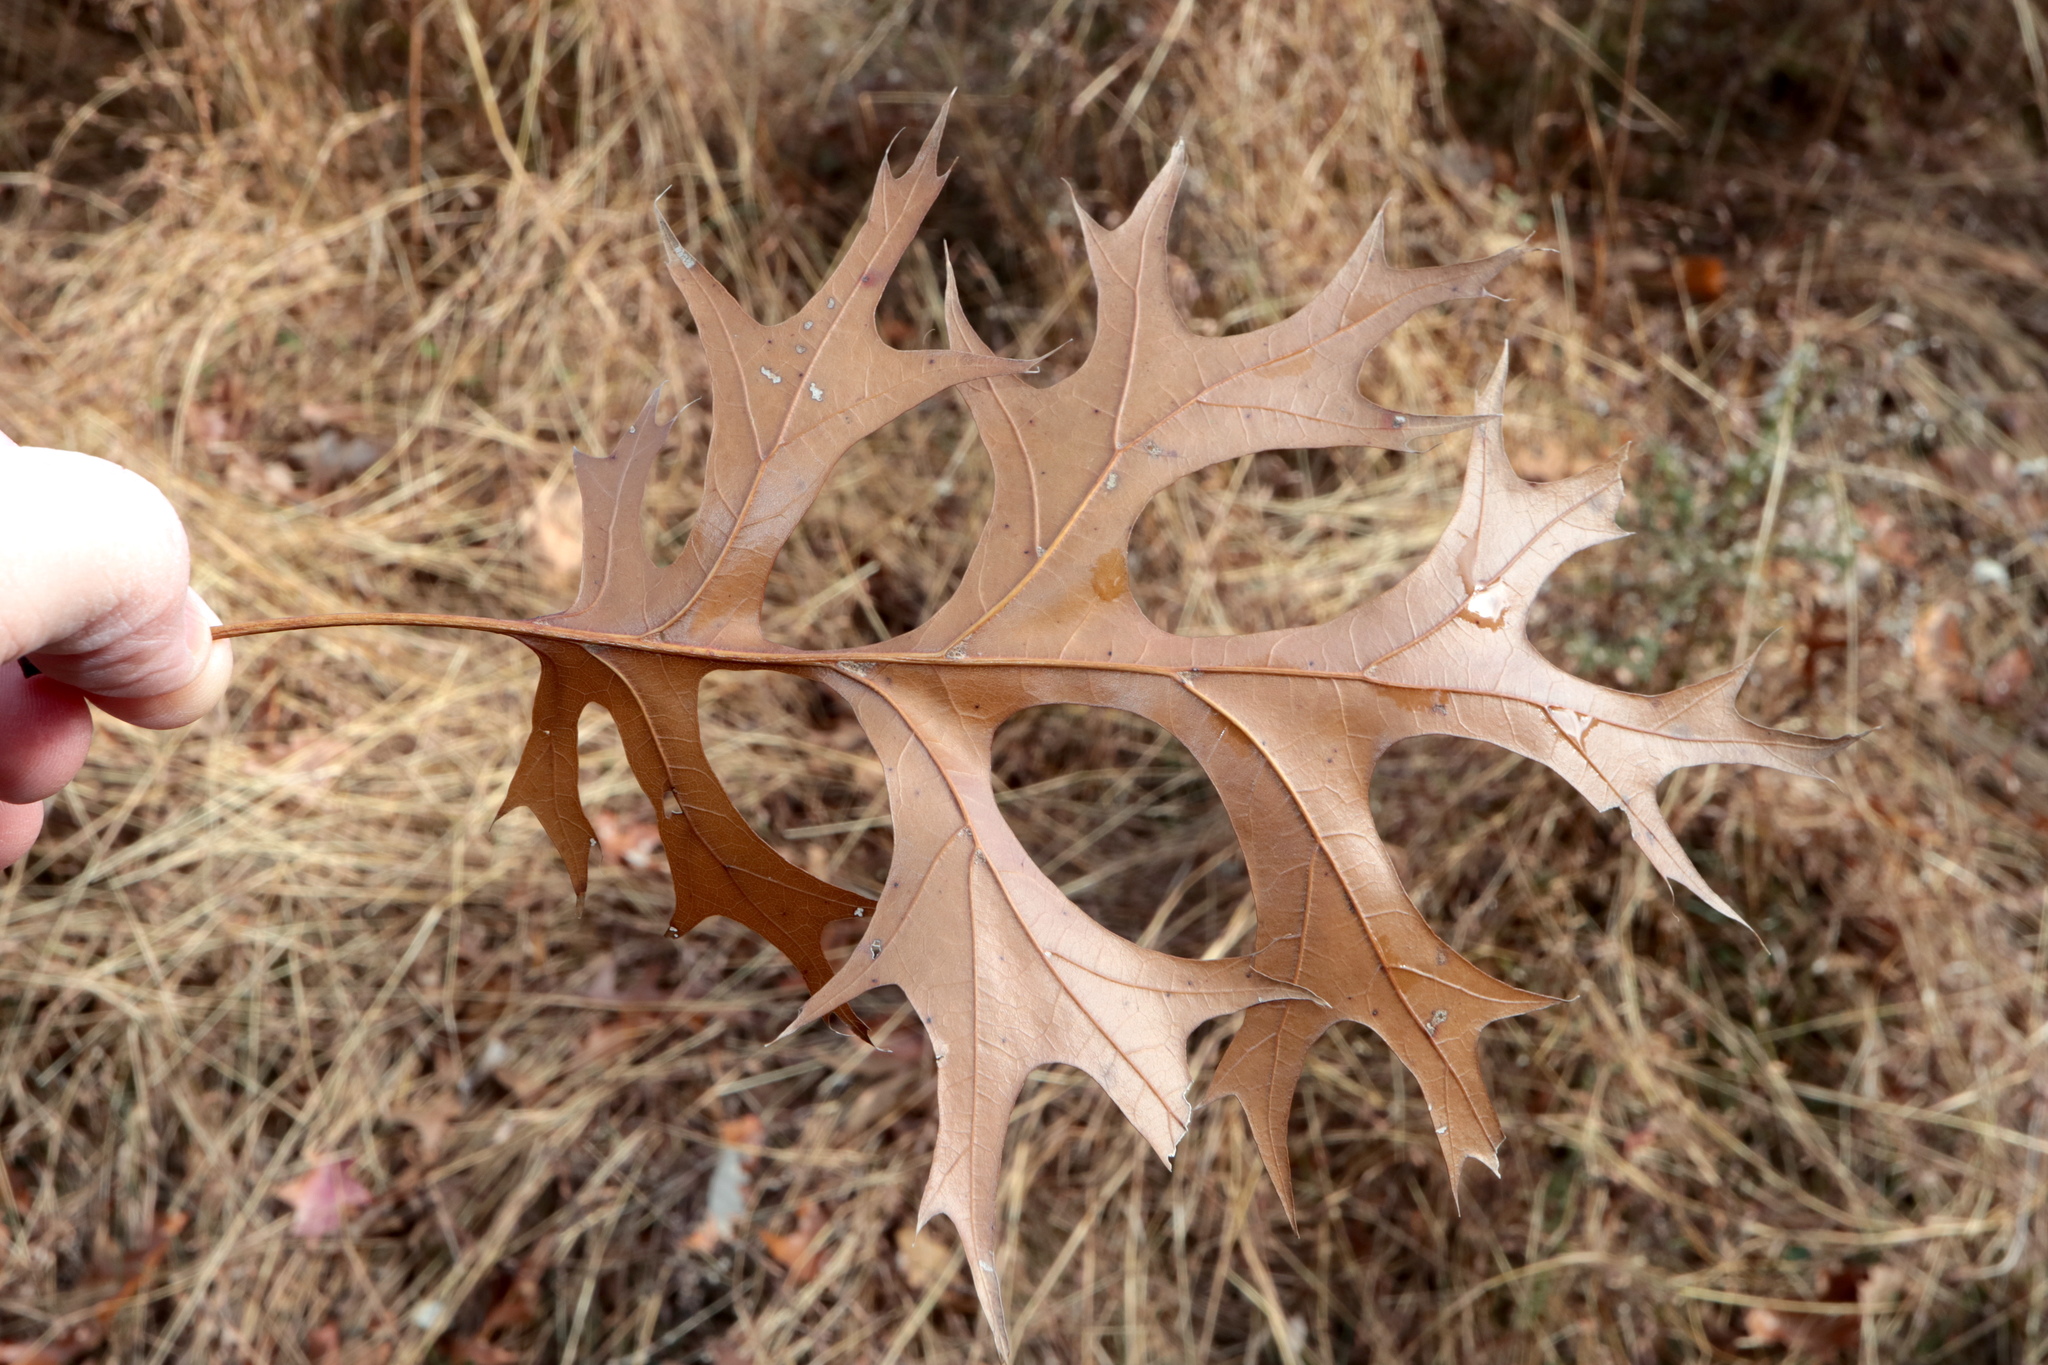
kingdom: Plantae
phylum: Tracheophyta
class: Magnoliopsida
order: Fagales
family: Fagaceae
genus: Quercus
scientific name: Quercus shumardii
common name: Shumard oak
